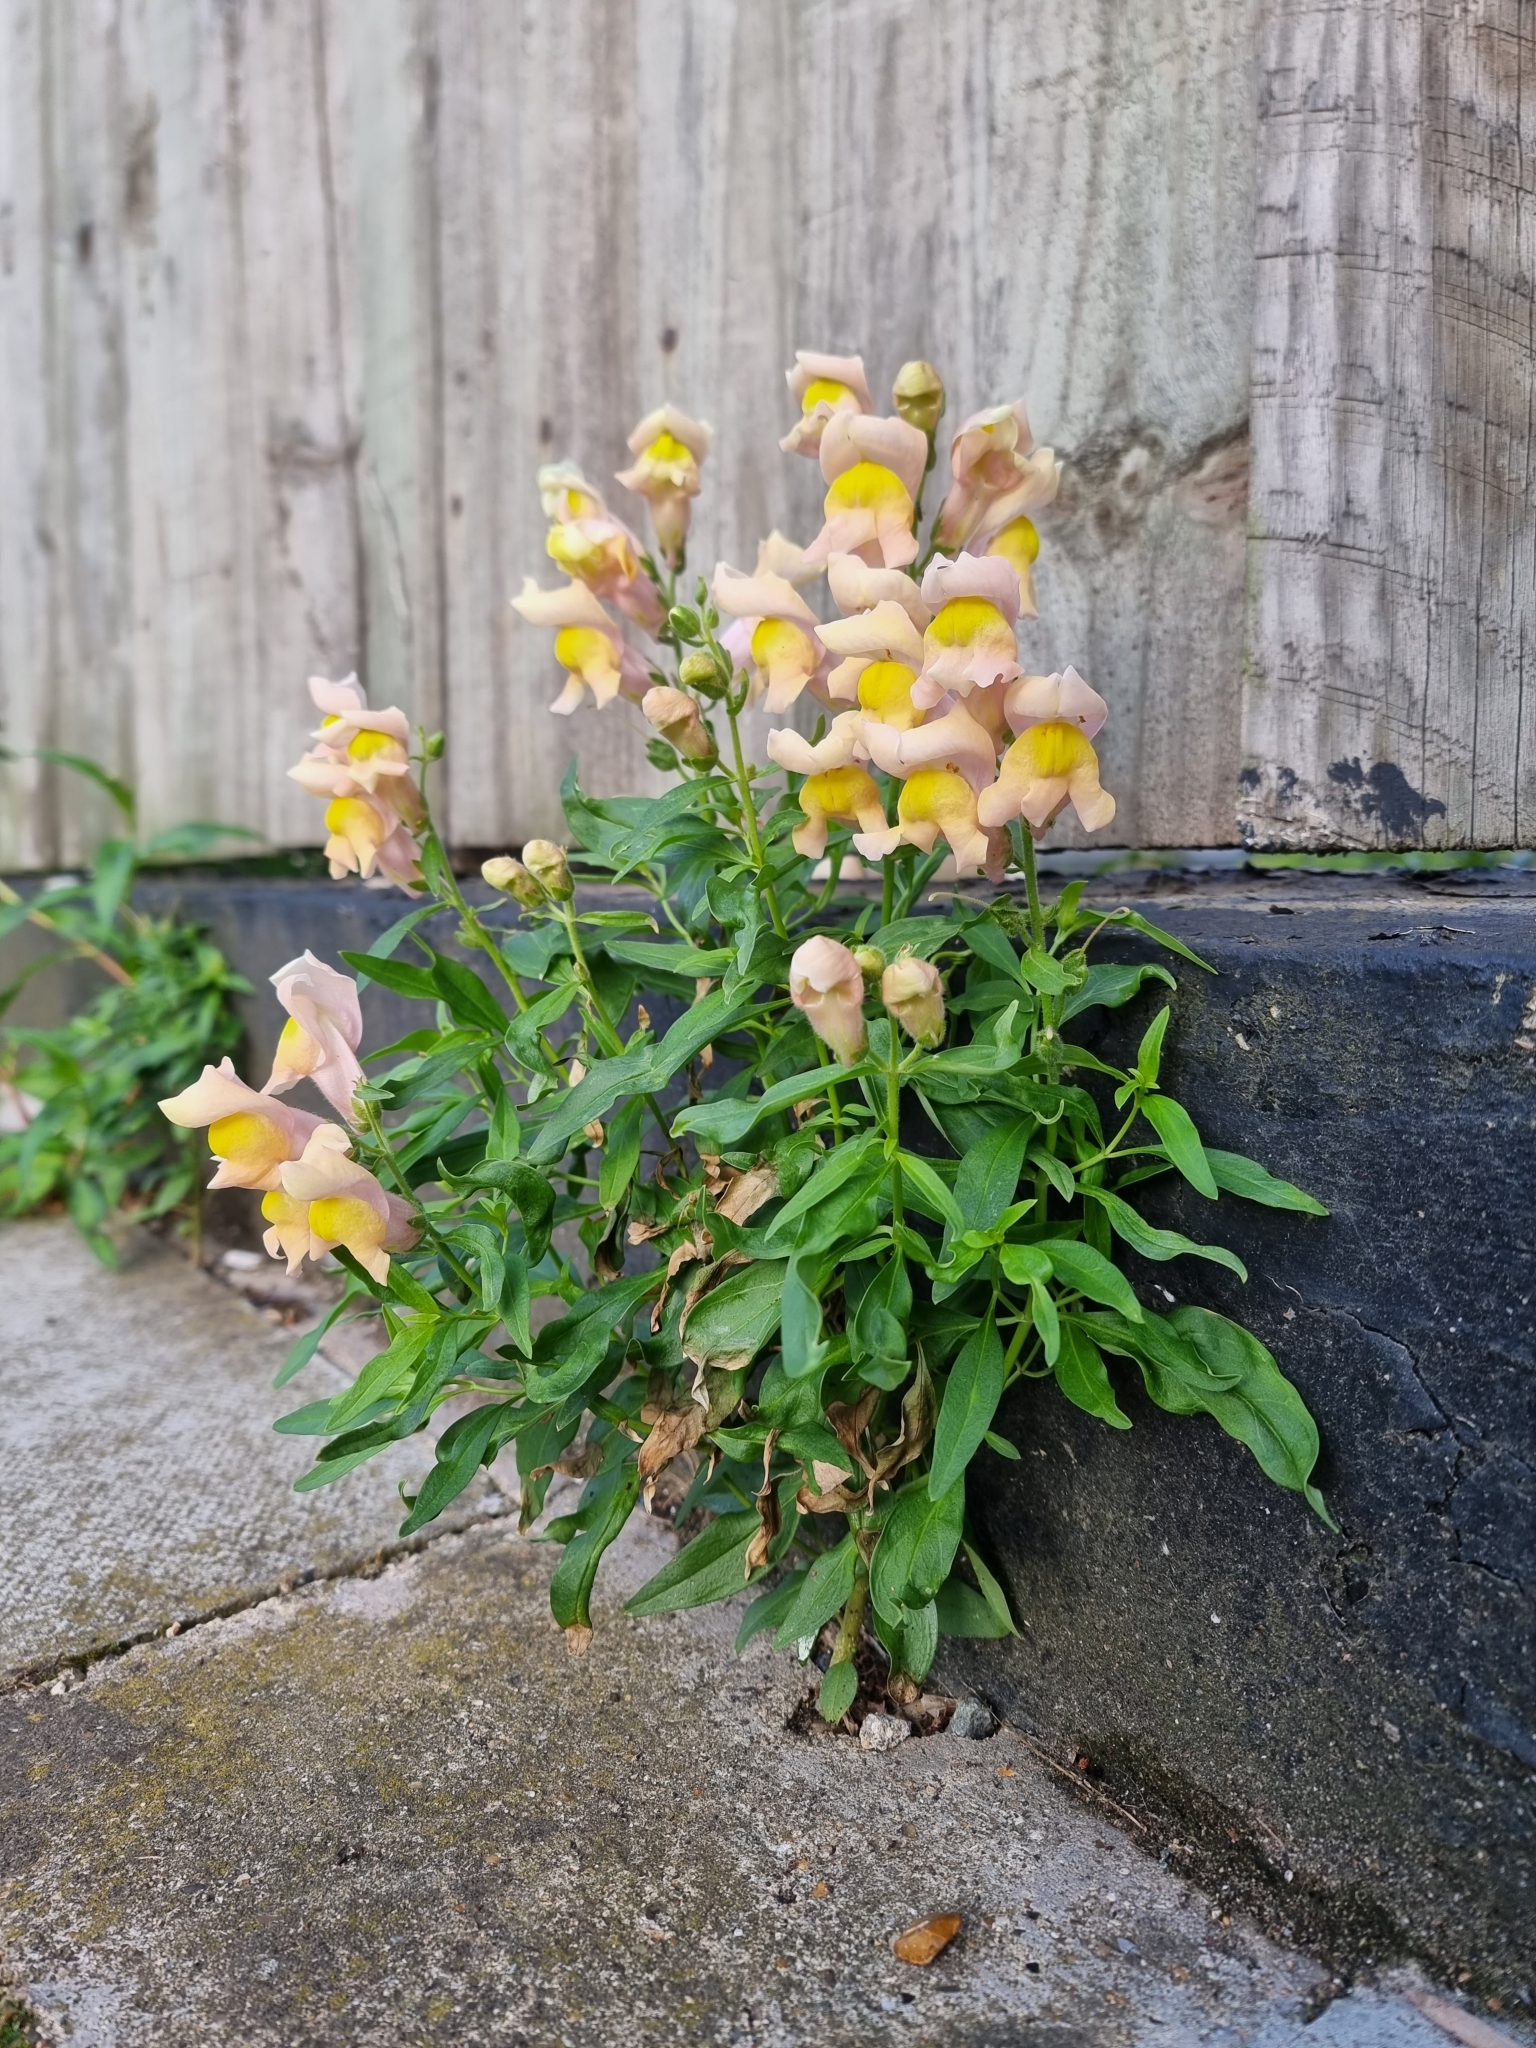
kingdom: Plantae
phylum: Tracheophyta
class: Magnoliopsida
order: Lamiales
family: Plantaginaceae
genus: Antirrhinum
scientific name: Antirrhinum majus
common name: Snapdragon
